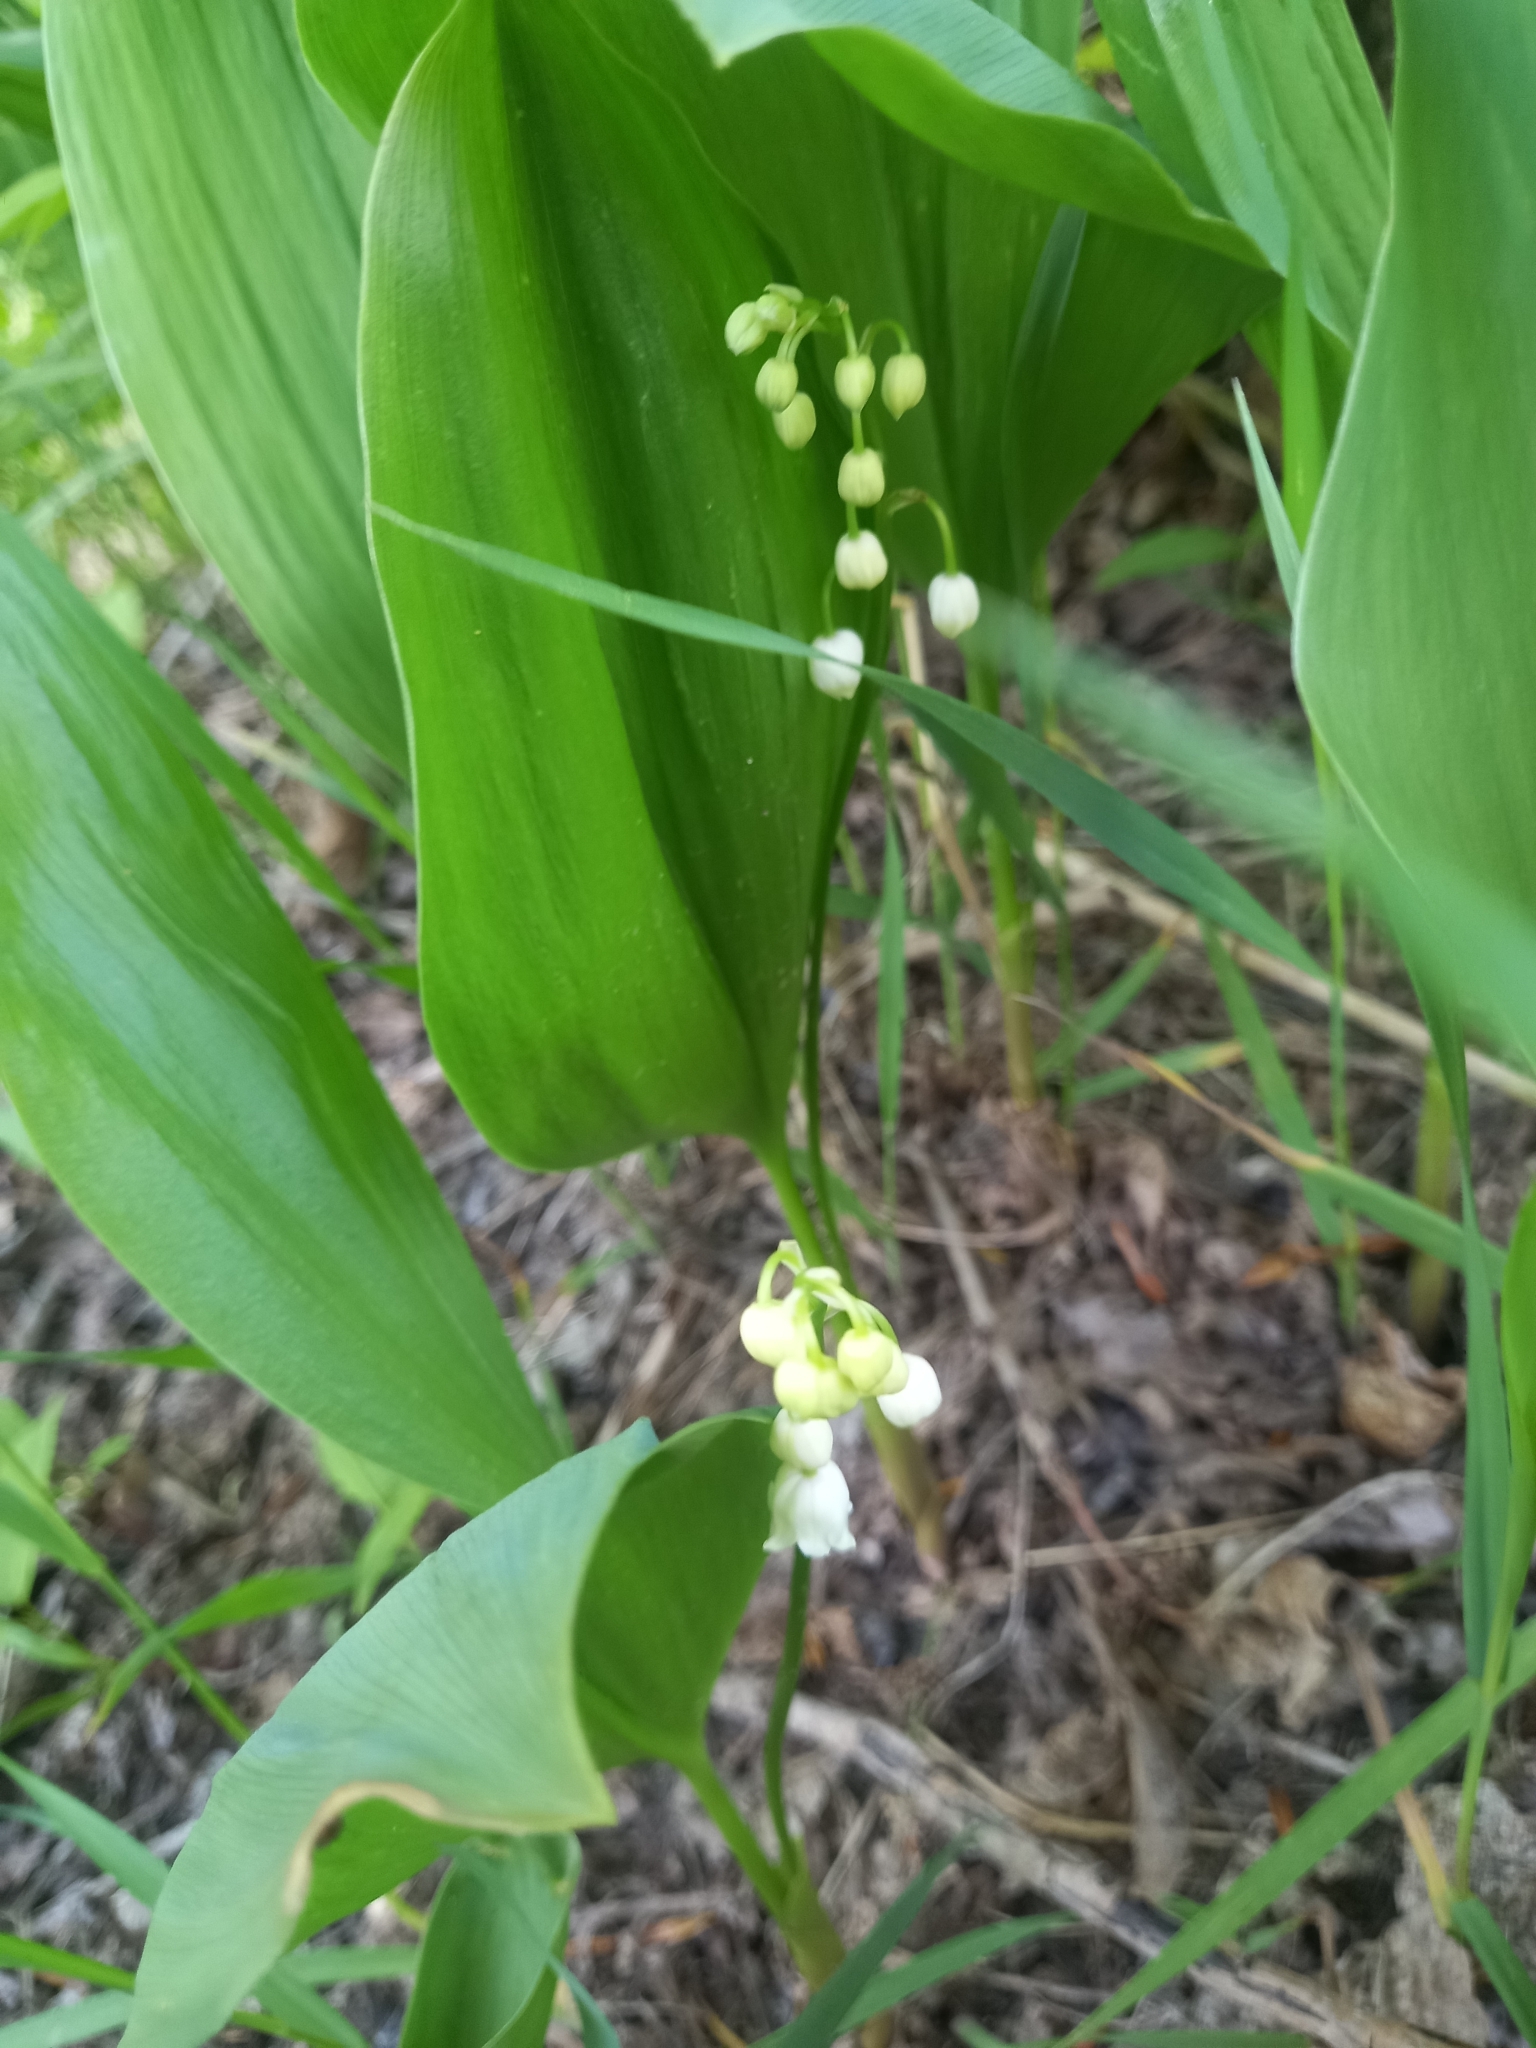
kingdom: Plantae
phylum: Tracheophyta
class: Liliopsida
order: Asparagales
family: Asparagaceae
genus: Convallaria
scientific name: Convallaria majalis
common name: Lily-of-the-valley
